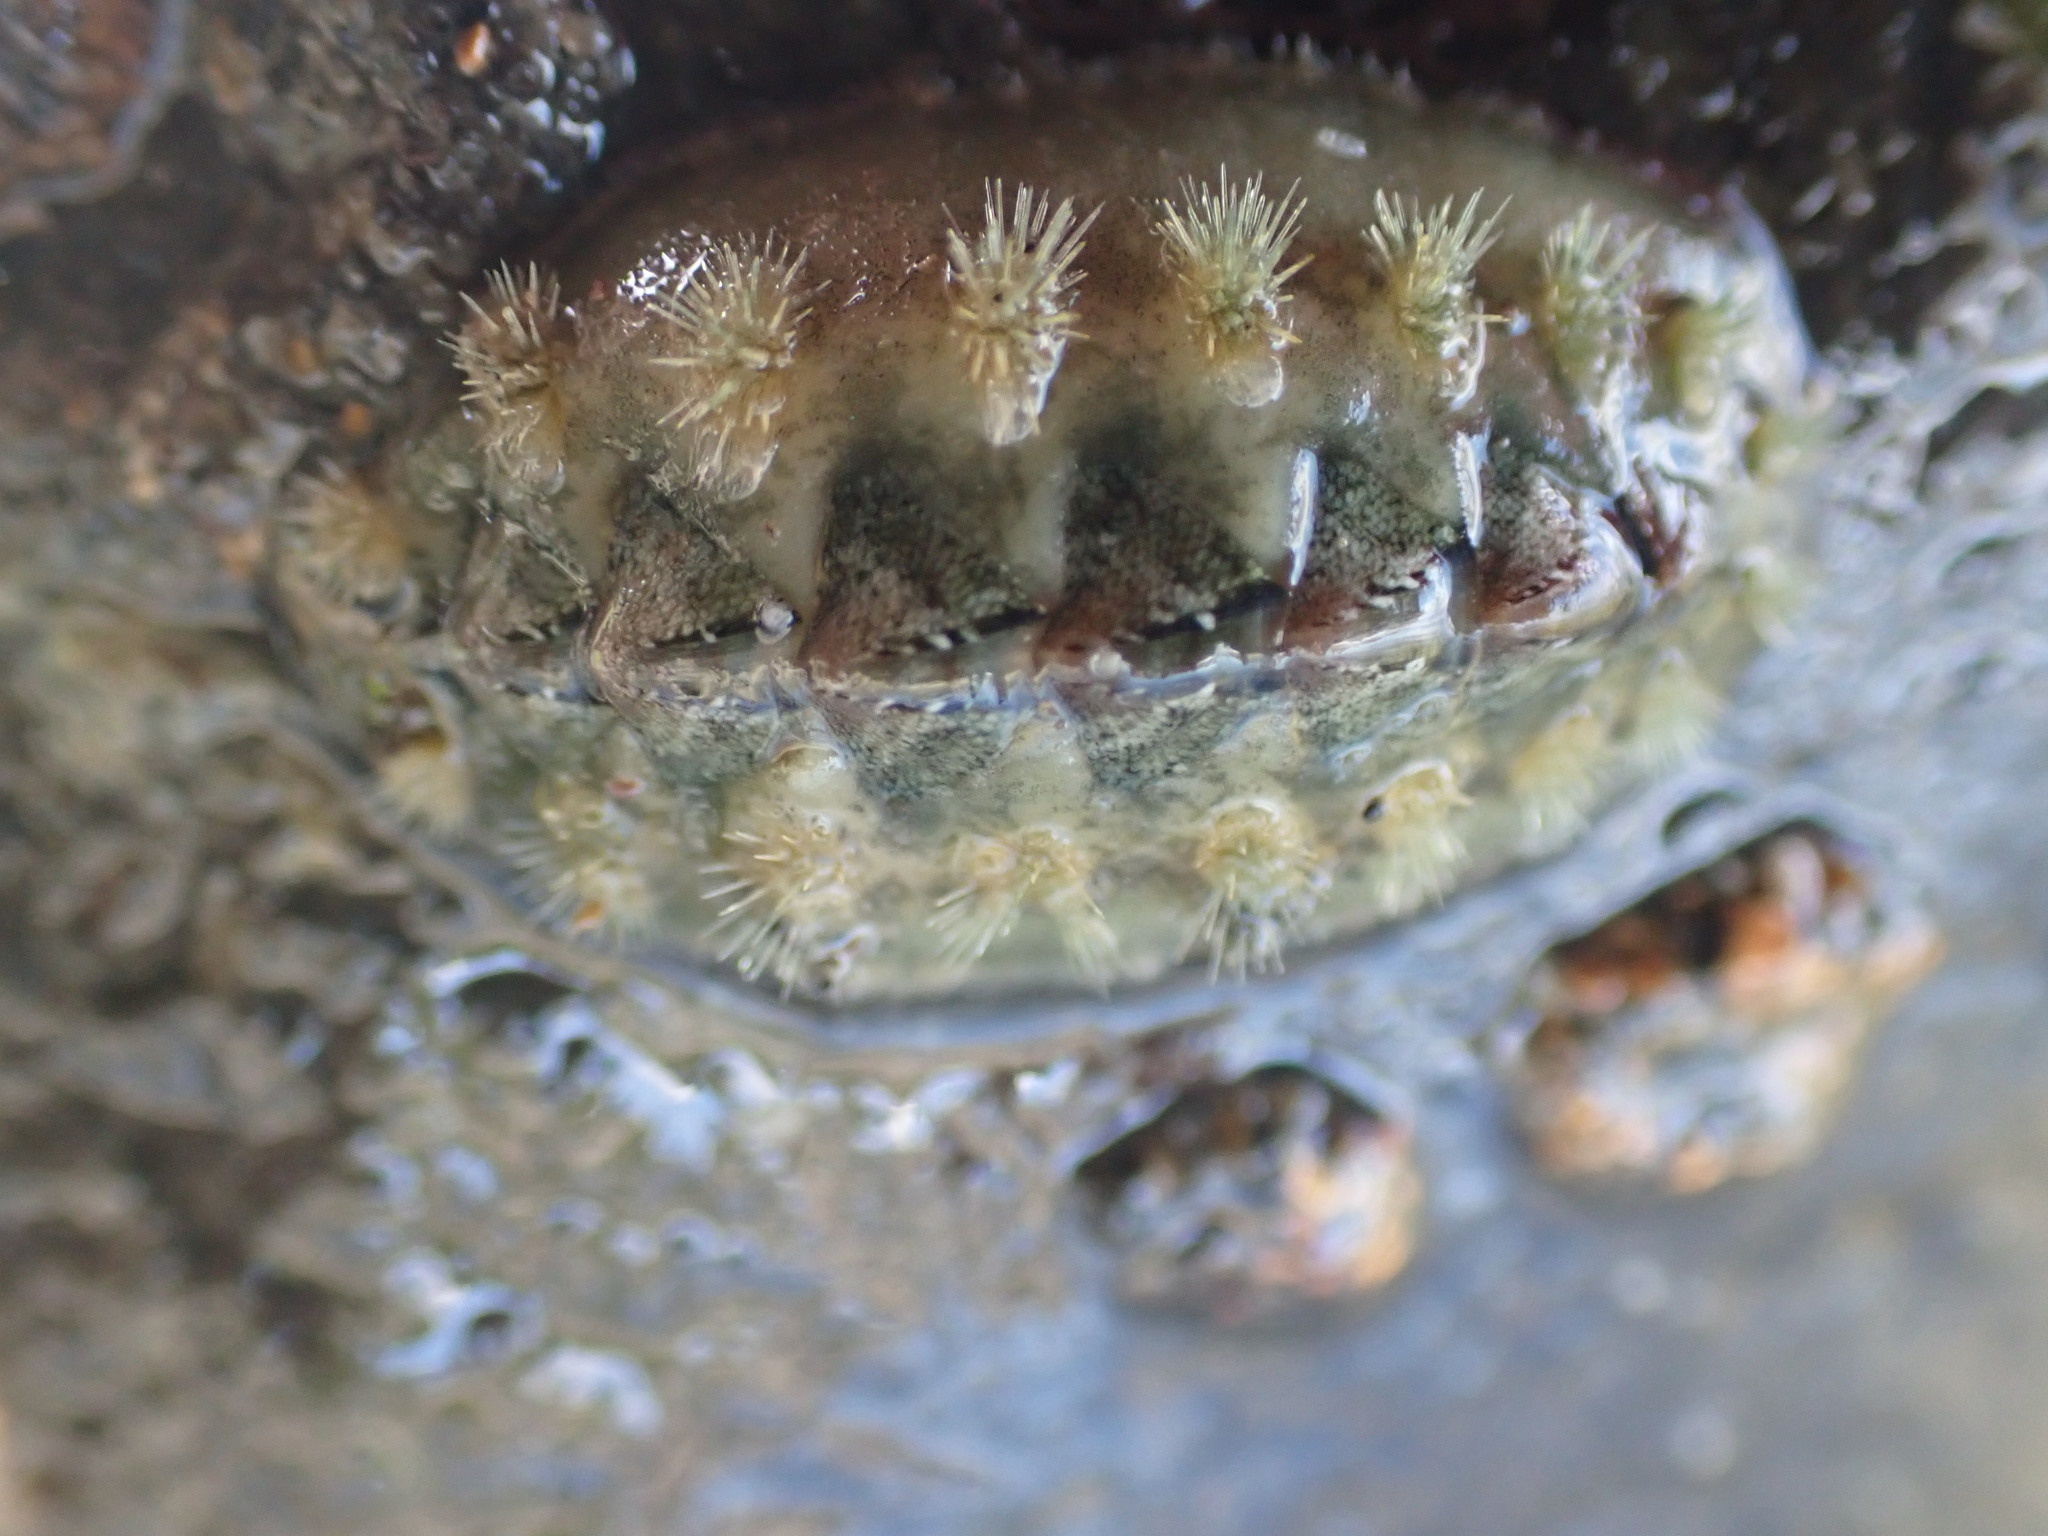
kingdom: Animalia
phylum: Mollusca
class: Polyplacophora
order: Chitonida
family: Acanthochitonidae
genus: Acanthochitona
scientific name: Acanthochitona zelandica
